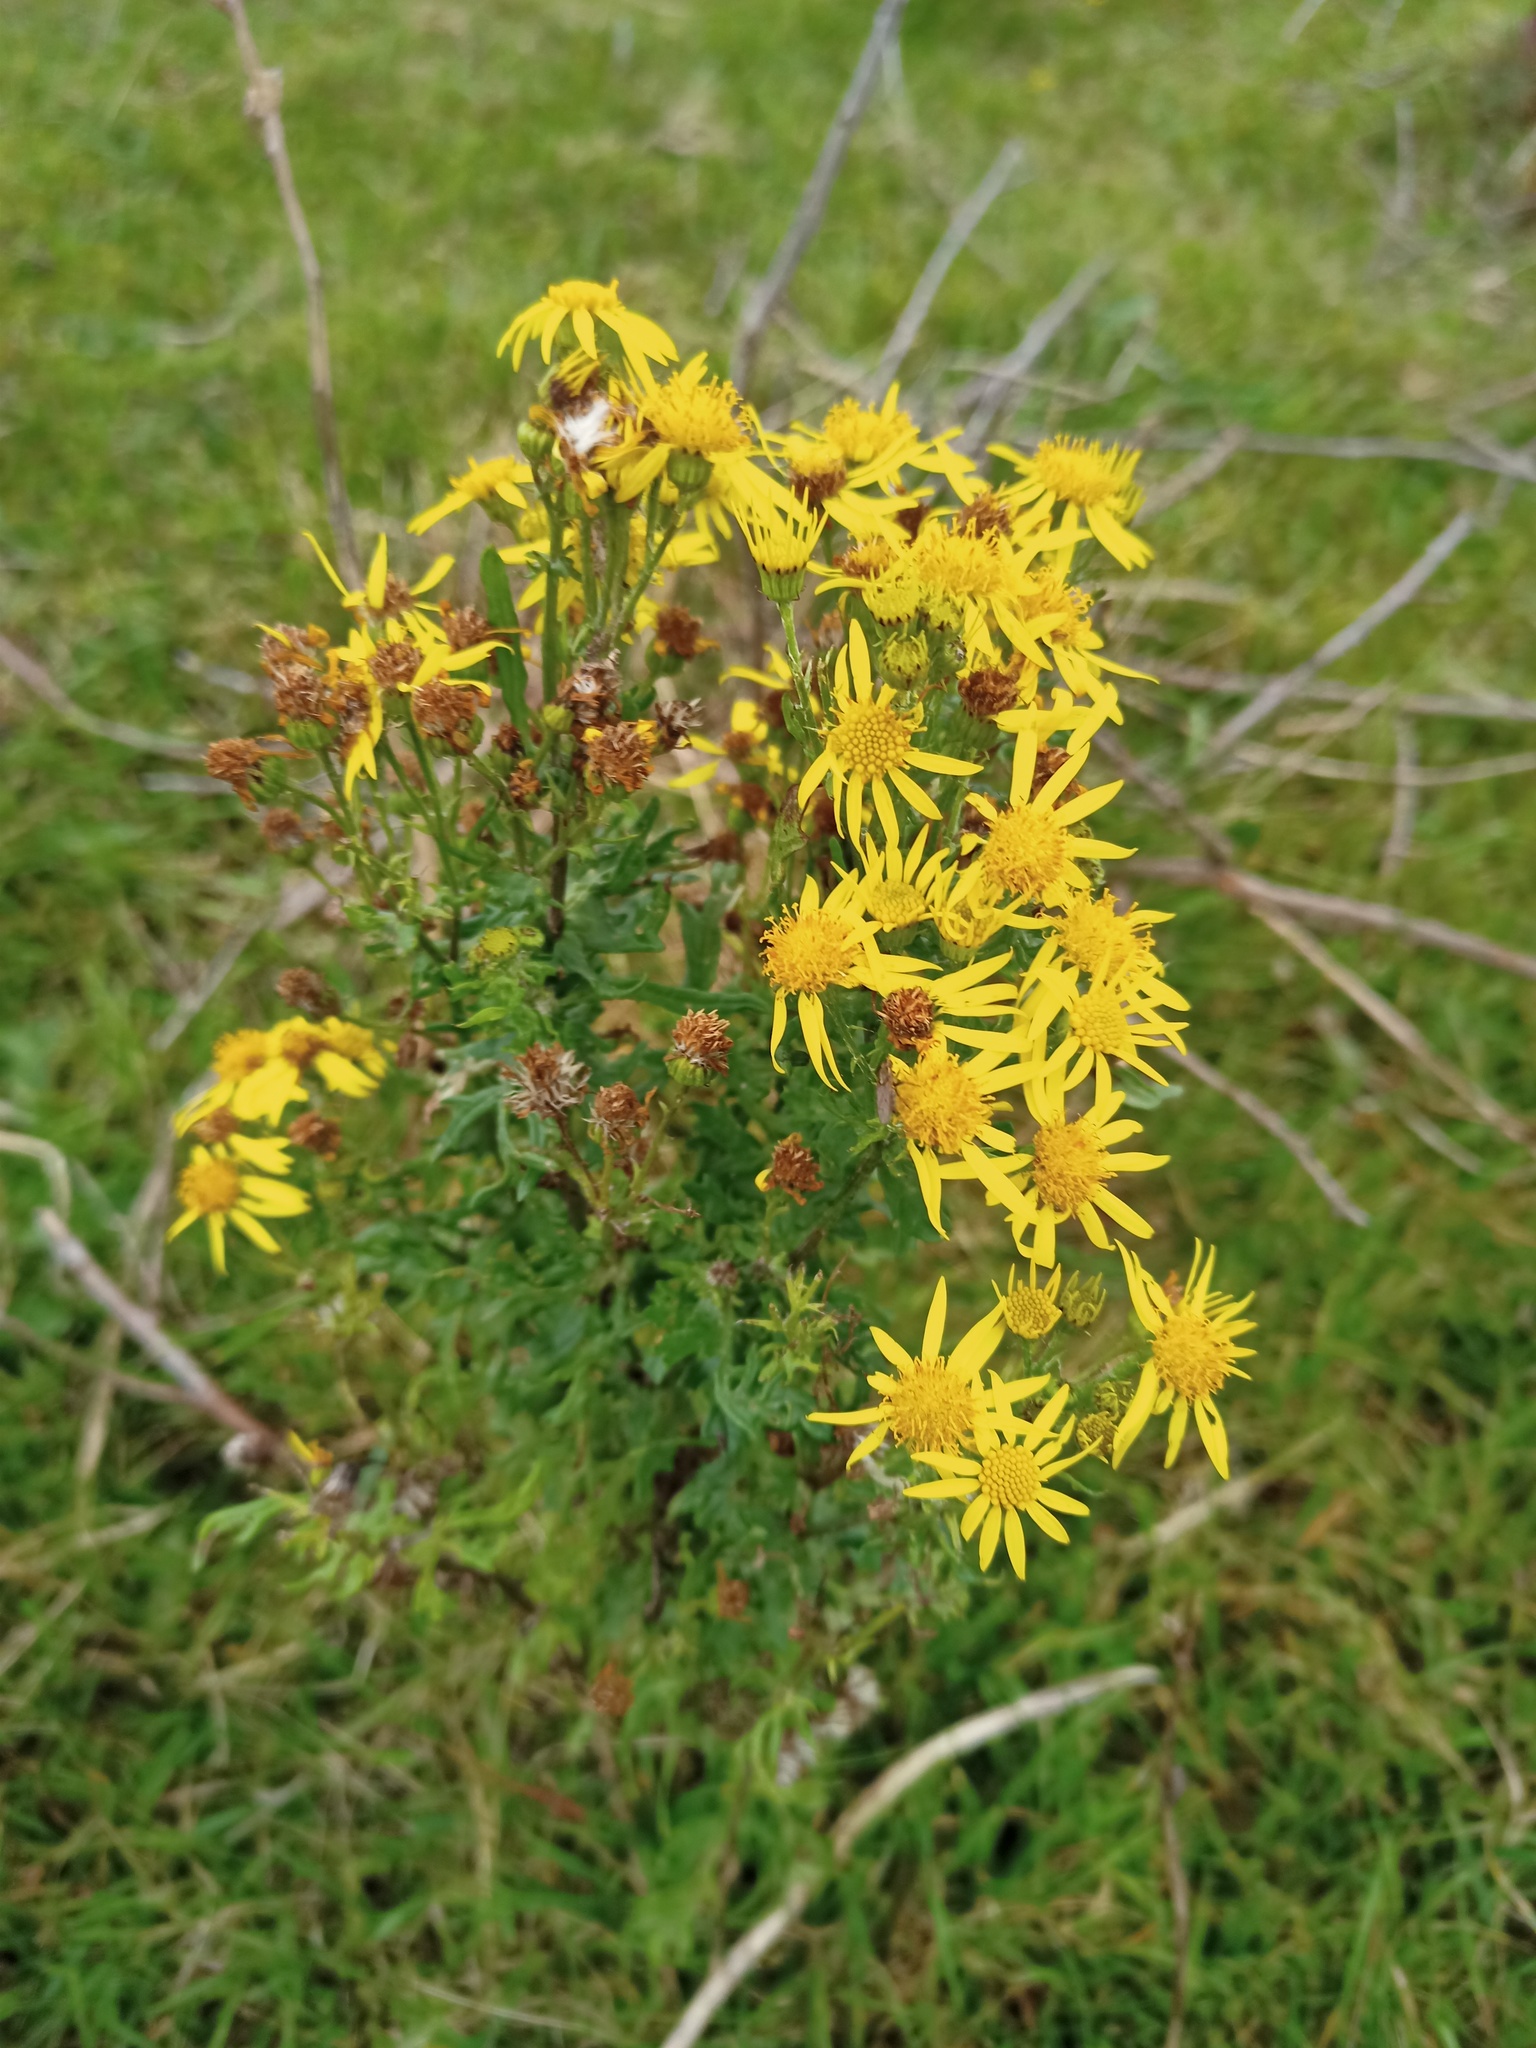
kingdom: Plantae
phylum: Tracheophyta
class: Magnoliopsida
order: Asterales
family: Asteraceae
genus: Jacobaea
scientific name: Jacobaea vulgaris
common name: Stinking willie
